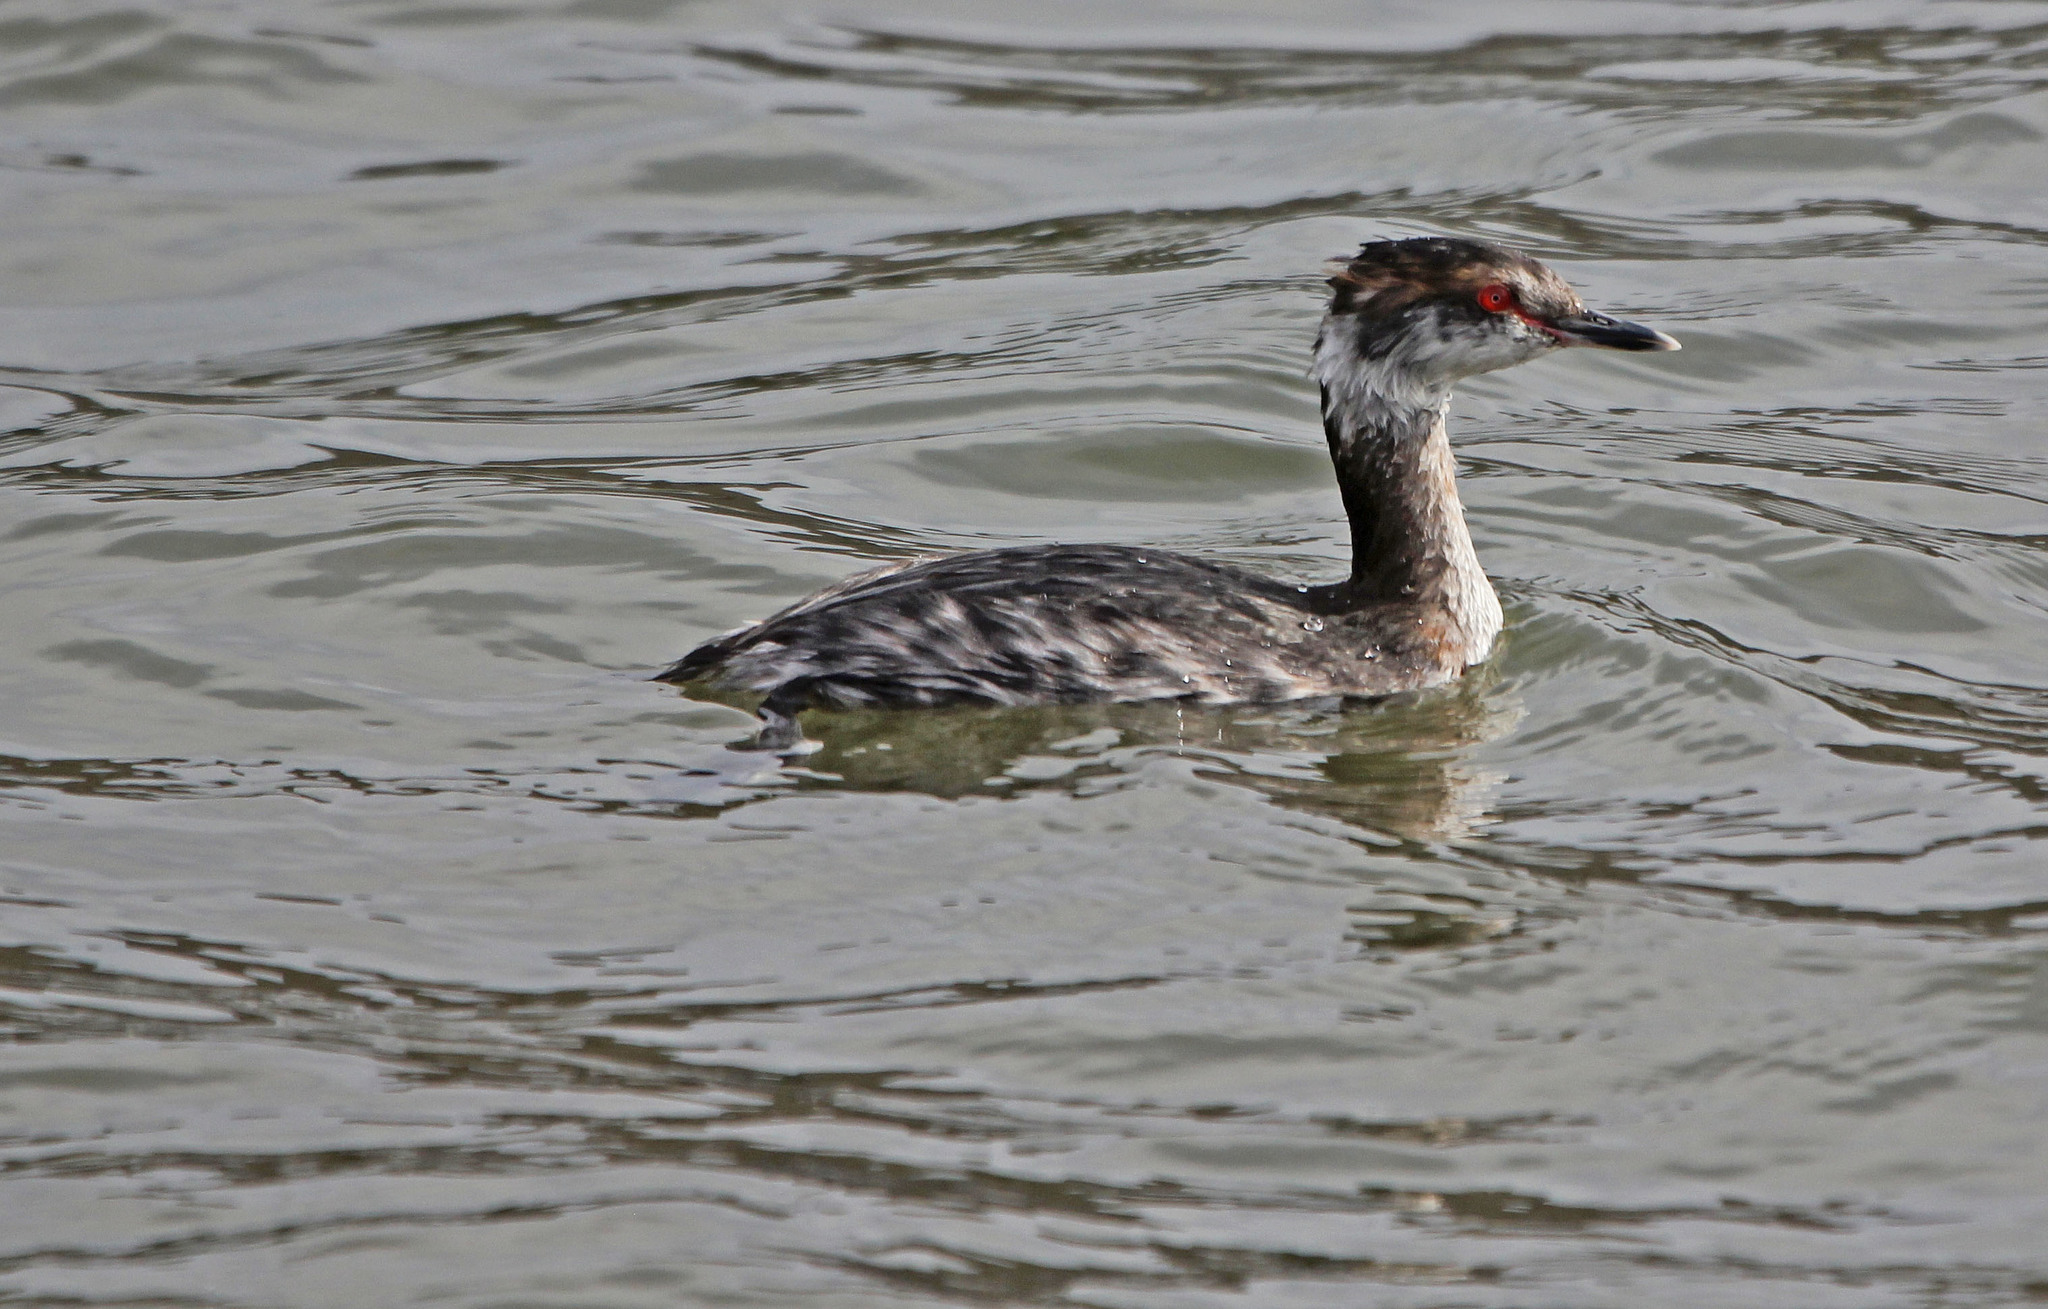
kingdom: Animalia
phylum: Chordata
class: Aves
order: Podicipediformes
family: Podicipedidae
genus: Podiceps
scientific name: Podiceps auritus
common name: Horned grebe
